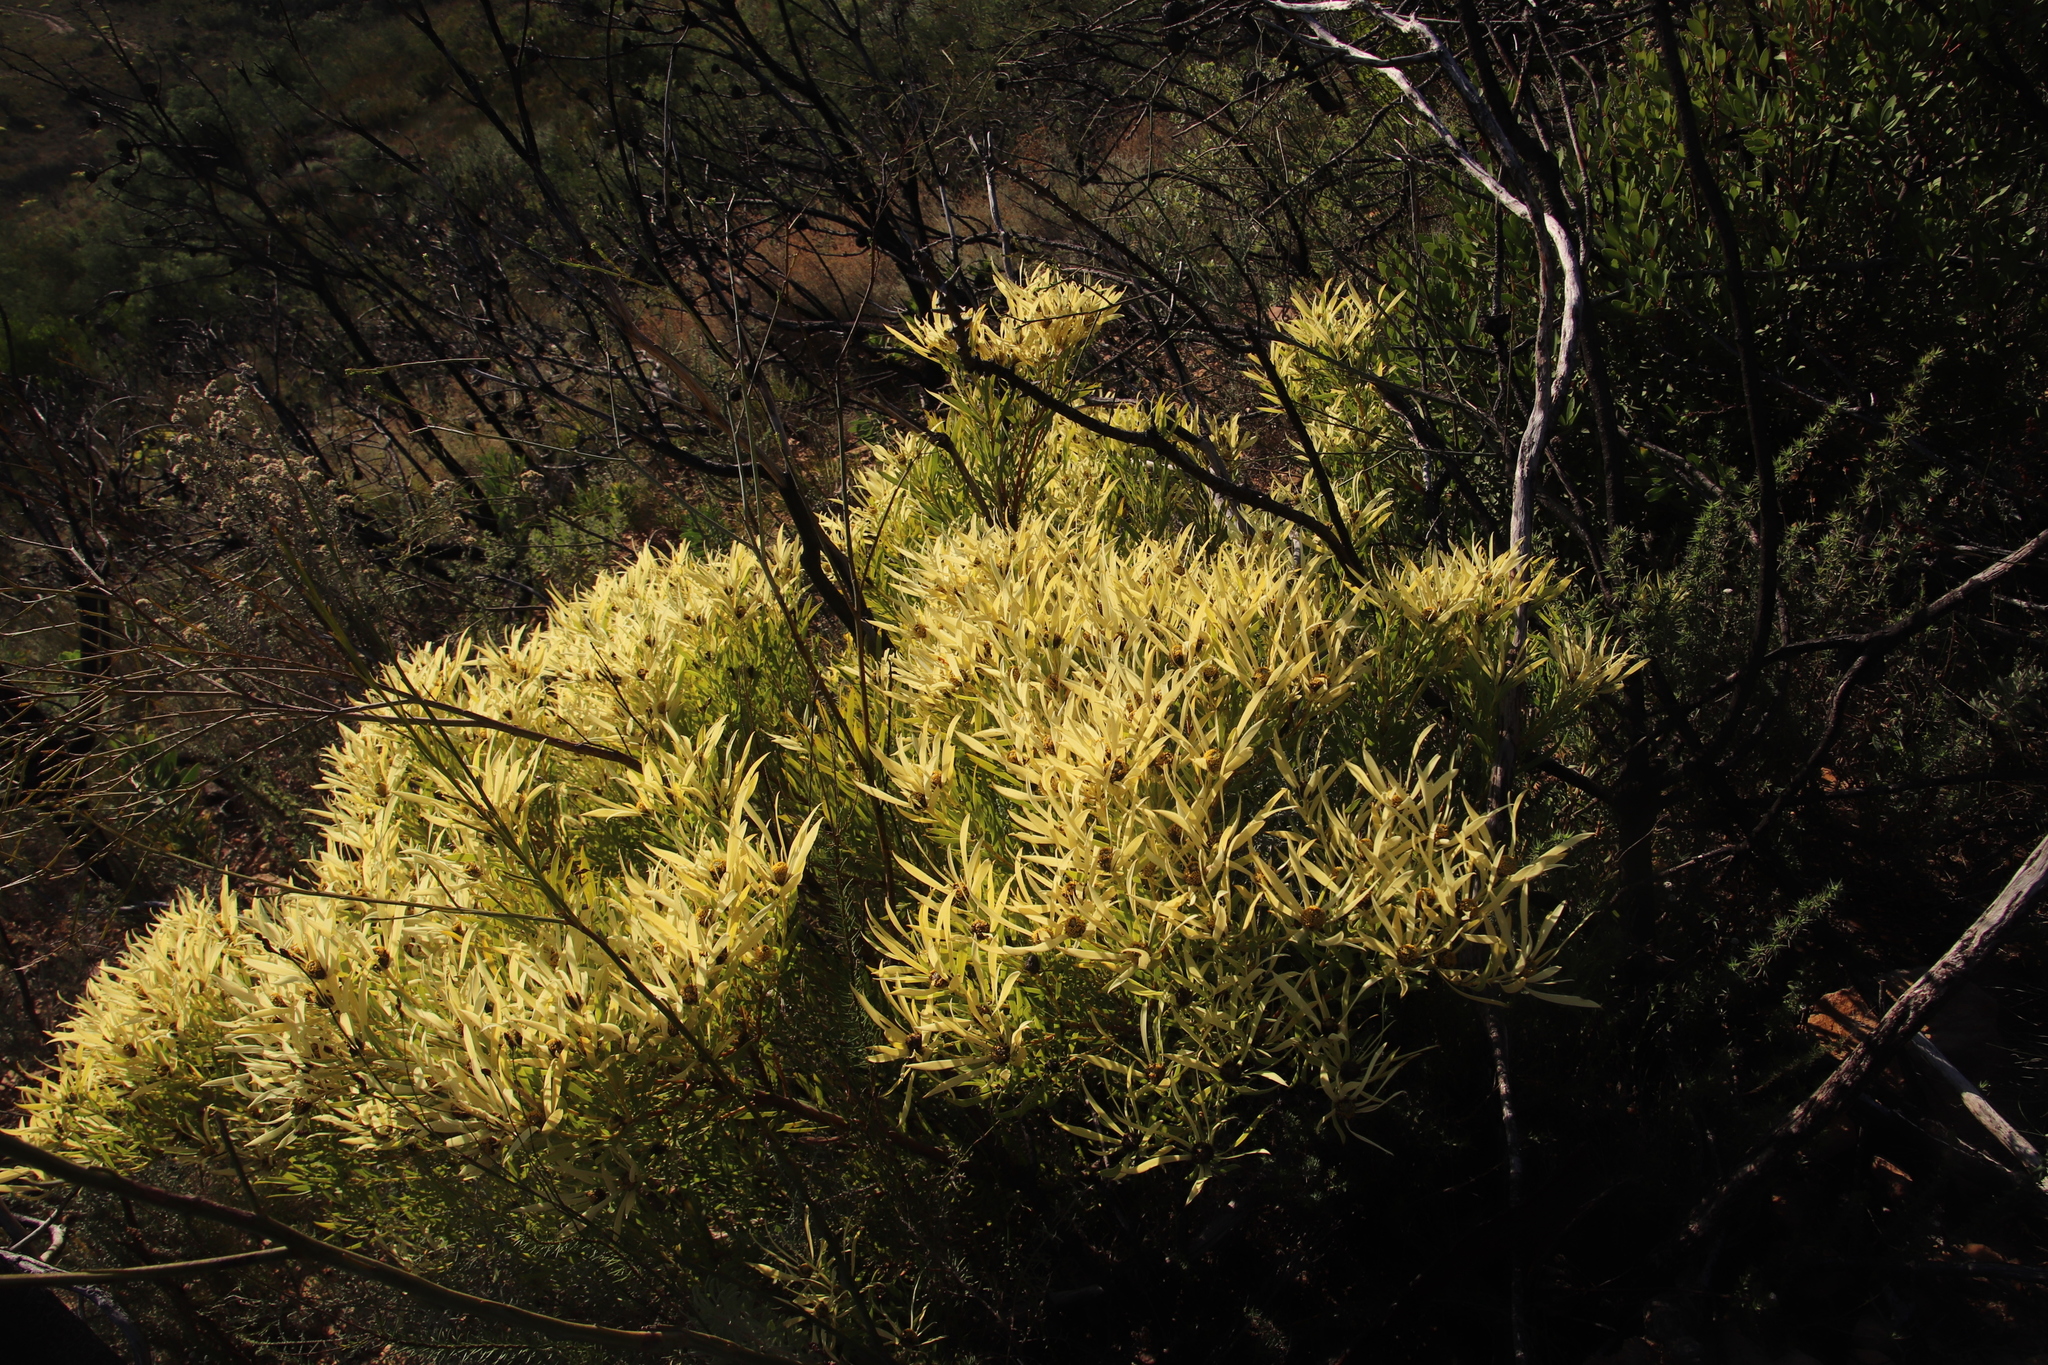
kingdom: Plantae
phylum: Tracheophyta
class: Magnoliopsida
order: Proteales
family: Proteaceae
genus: Leucadendron
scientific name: Leucadendron salignum
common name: Common sunshine conebush
